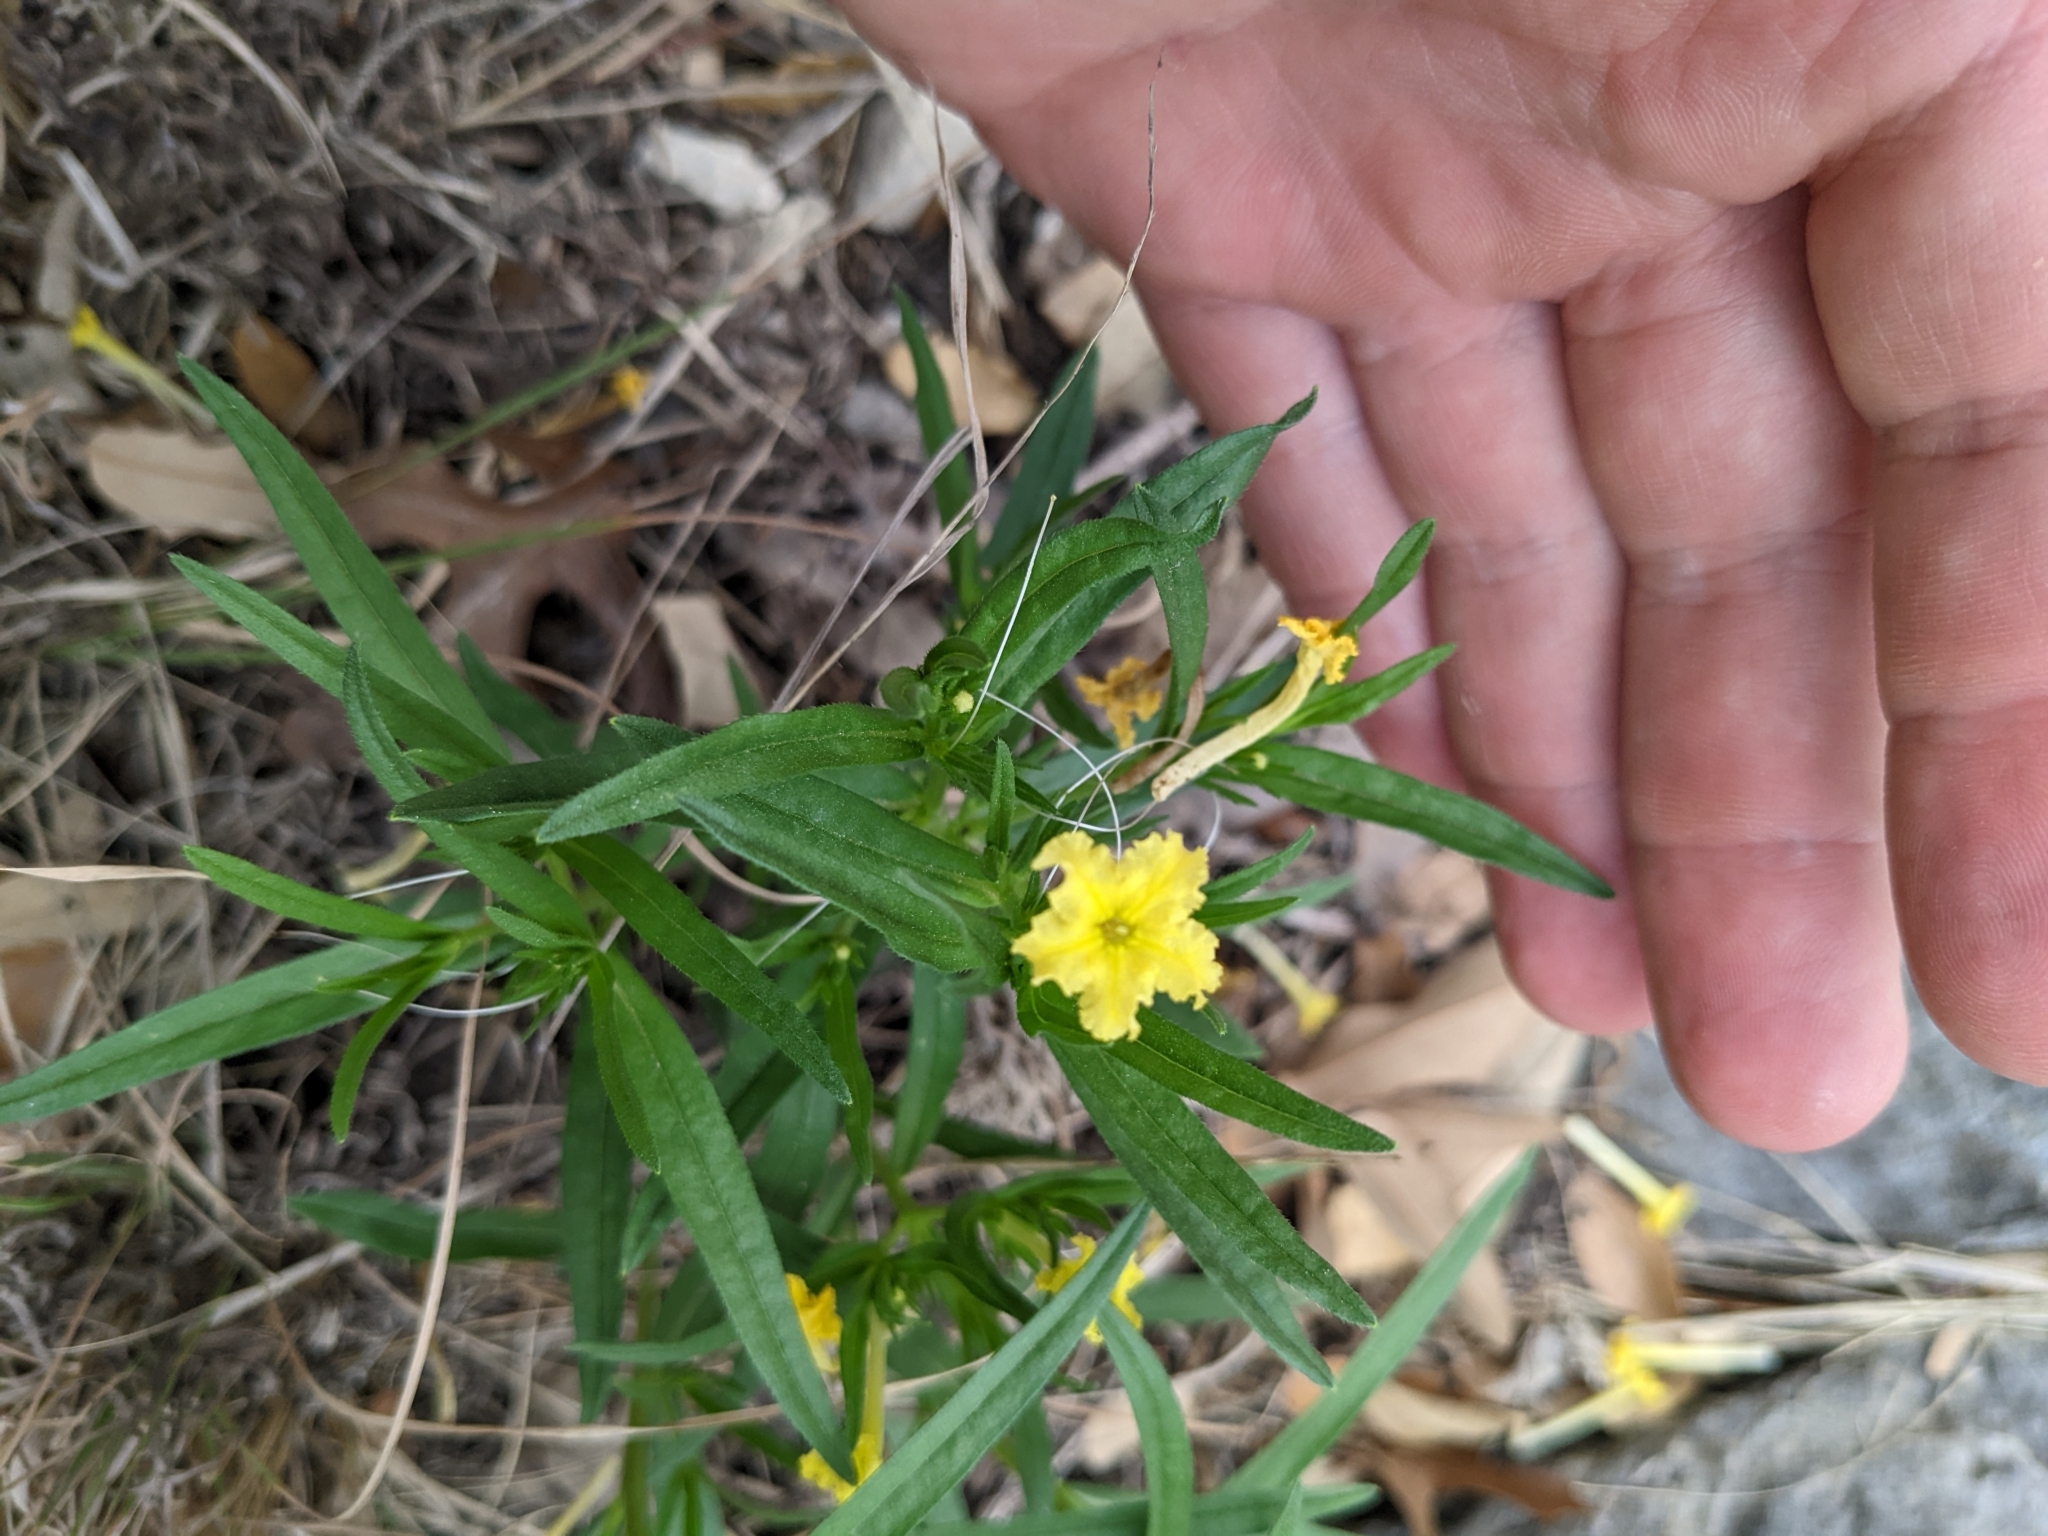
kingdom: Plantae
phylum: Tracheophyta
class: Magnoliopsida
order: Boraginales
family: Boraginaceae
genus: Lithospermum
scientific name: Lithospermum incisum
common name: Fringed gromwell
